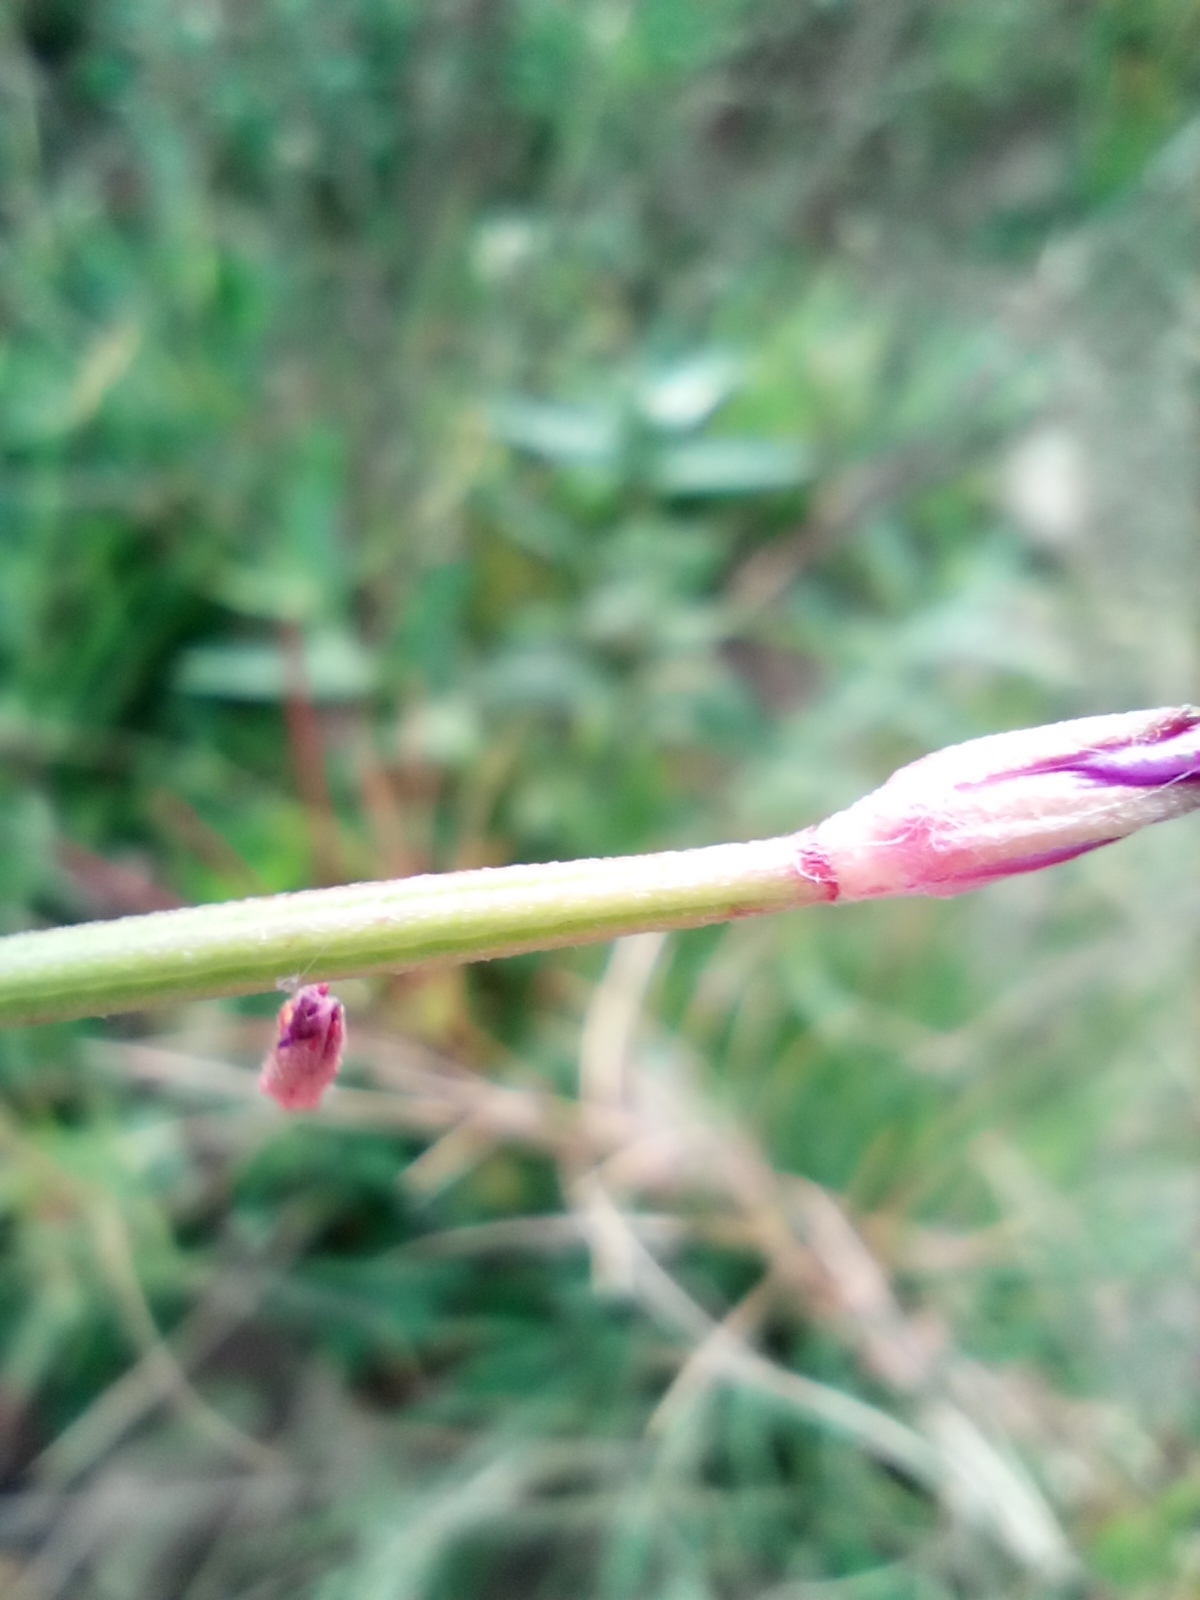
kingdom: Plantae
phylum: Tracheophyta
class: Magnoliopsida
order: Myrtales
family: Onagraceae
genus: Epilobium
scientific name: Epilobium tetragonum
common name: Square-stemmed willowherb
